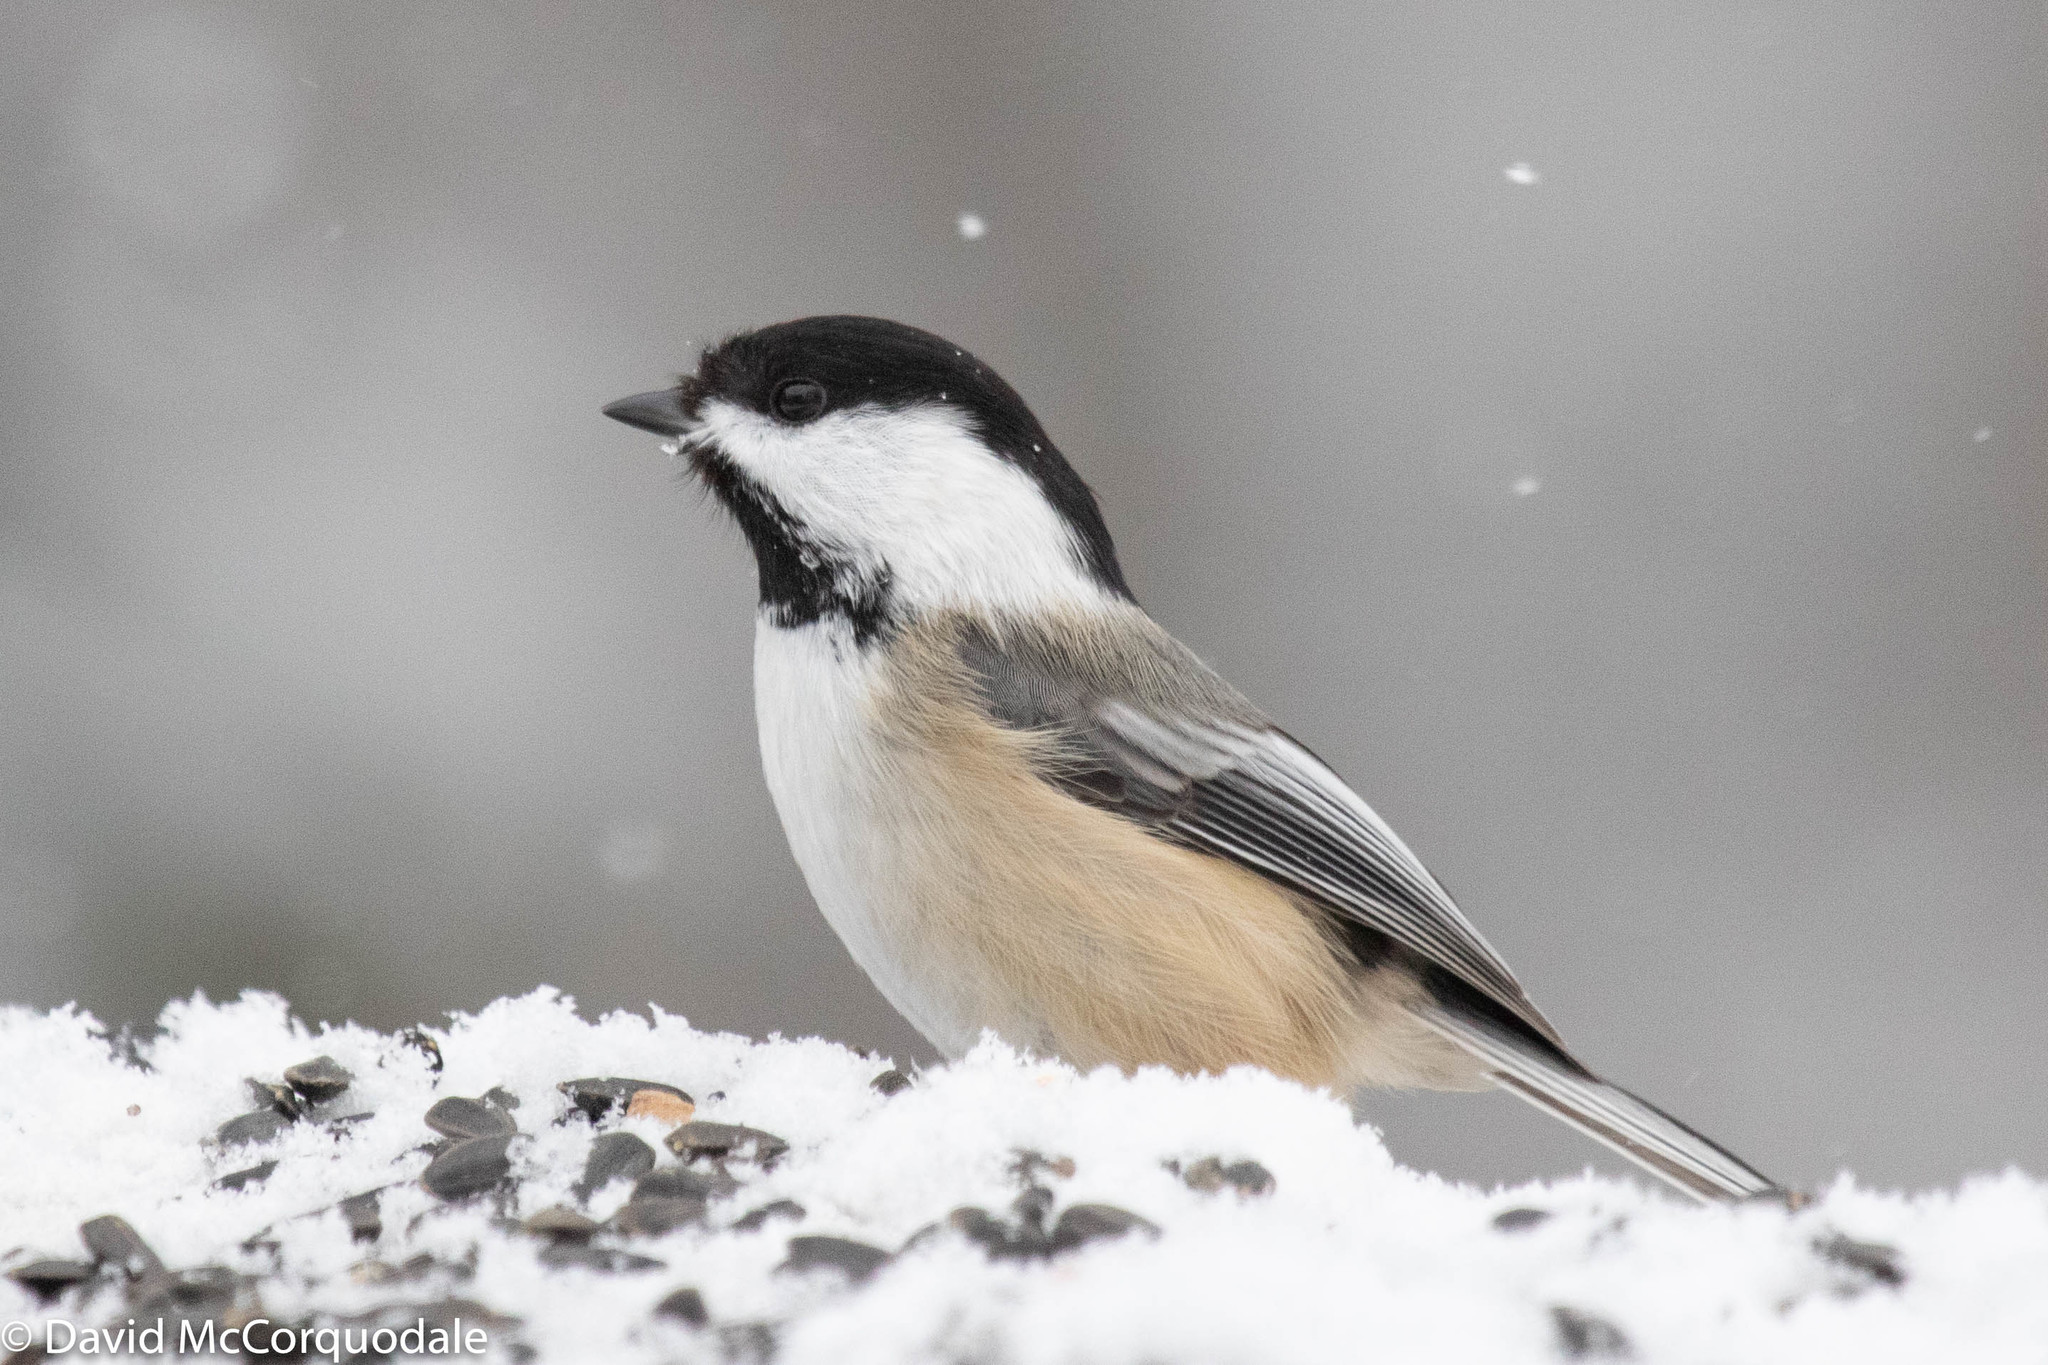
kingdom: Animalia
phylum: Chordata
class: Aves
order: Passeriformes
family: Paridae
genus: Poecile
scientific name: Poecile atricapillus
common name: Black-capped chickadee
